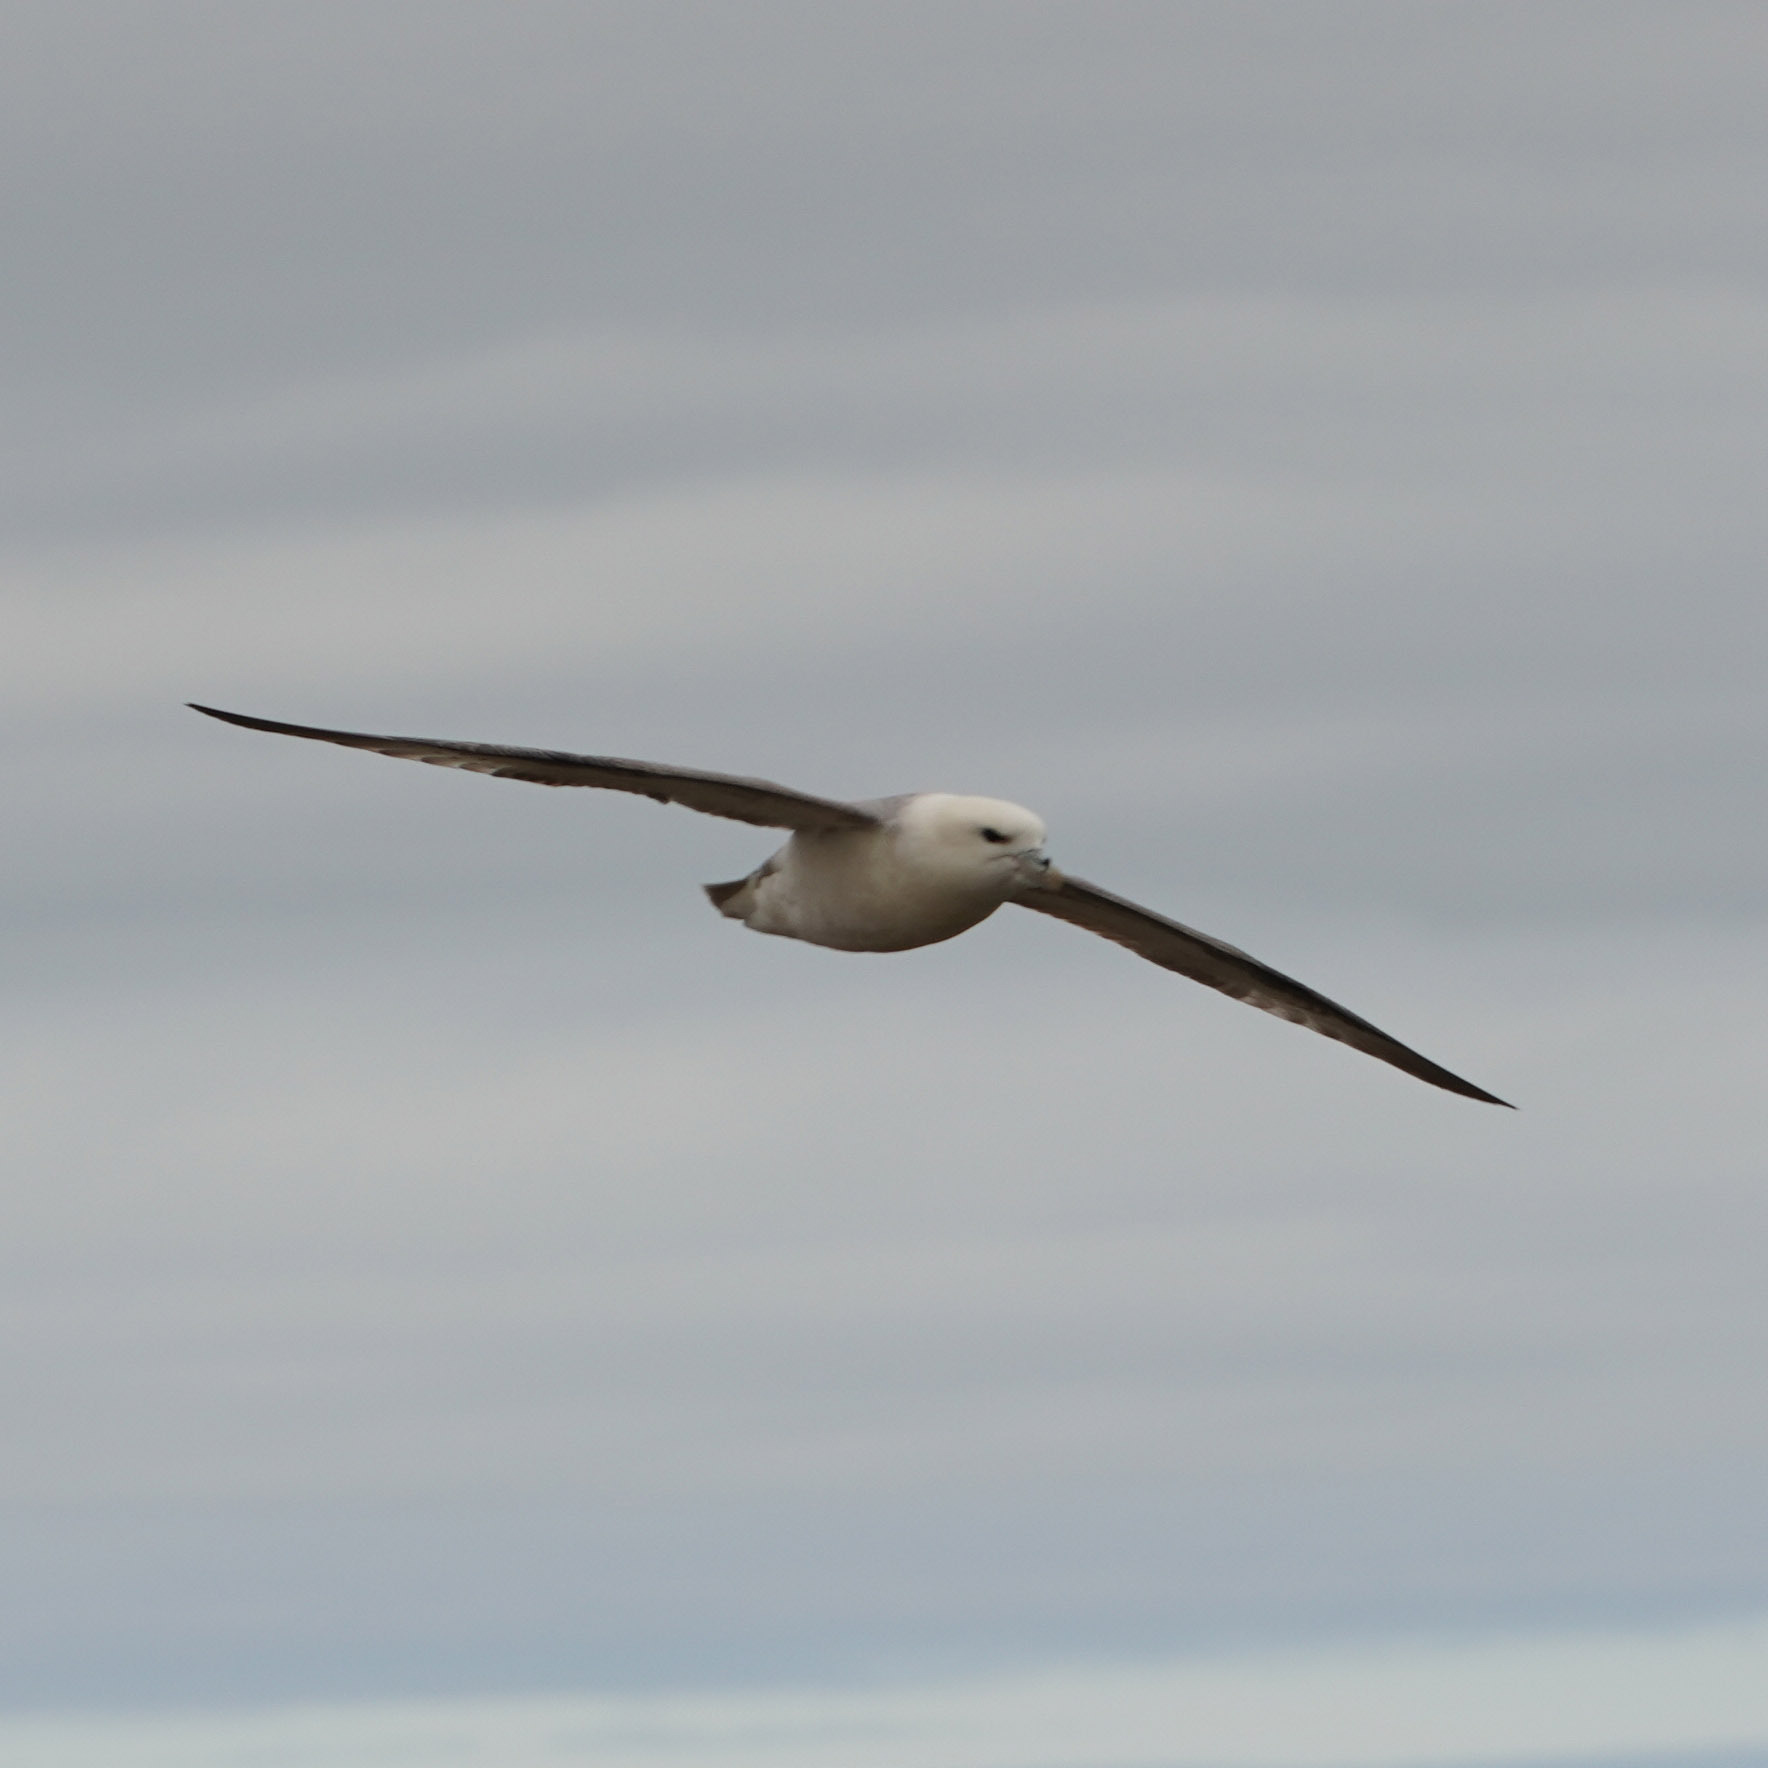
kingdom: Animalia
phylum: Chordata
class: Aves
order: Procellariiformes
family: Procellariidae
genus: Fulmarus
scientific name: Fulmarus glacialis
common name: Northern fulmar
